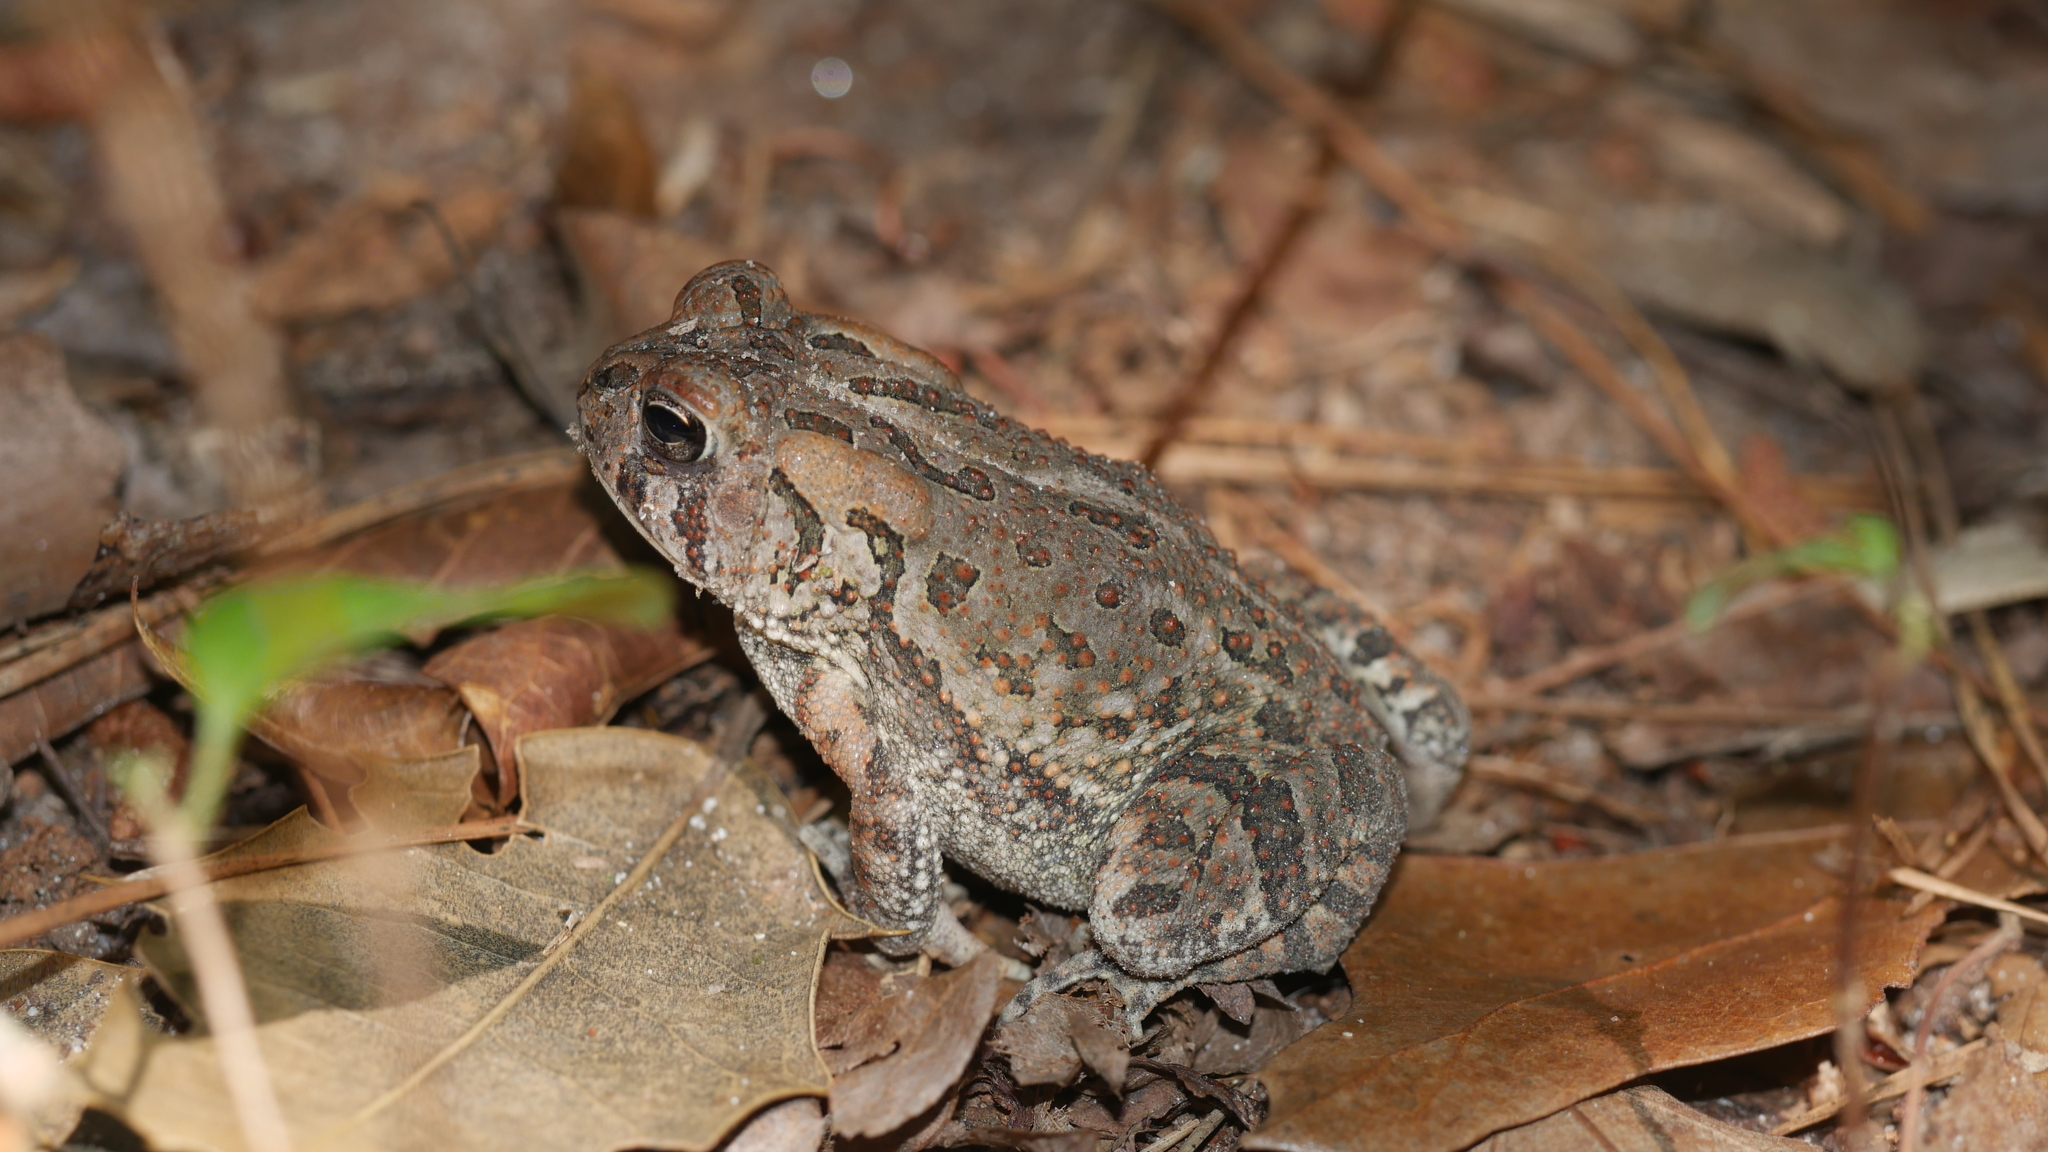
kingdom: Animalia
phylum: Chordata
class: Amphibia
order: Anura
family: Bufonidae
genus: Anaxyrus
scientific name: Anaxyrus fowleri
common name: Fowler's toad
